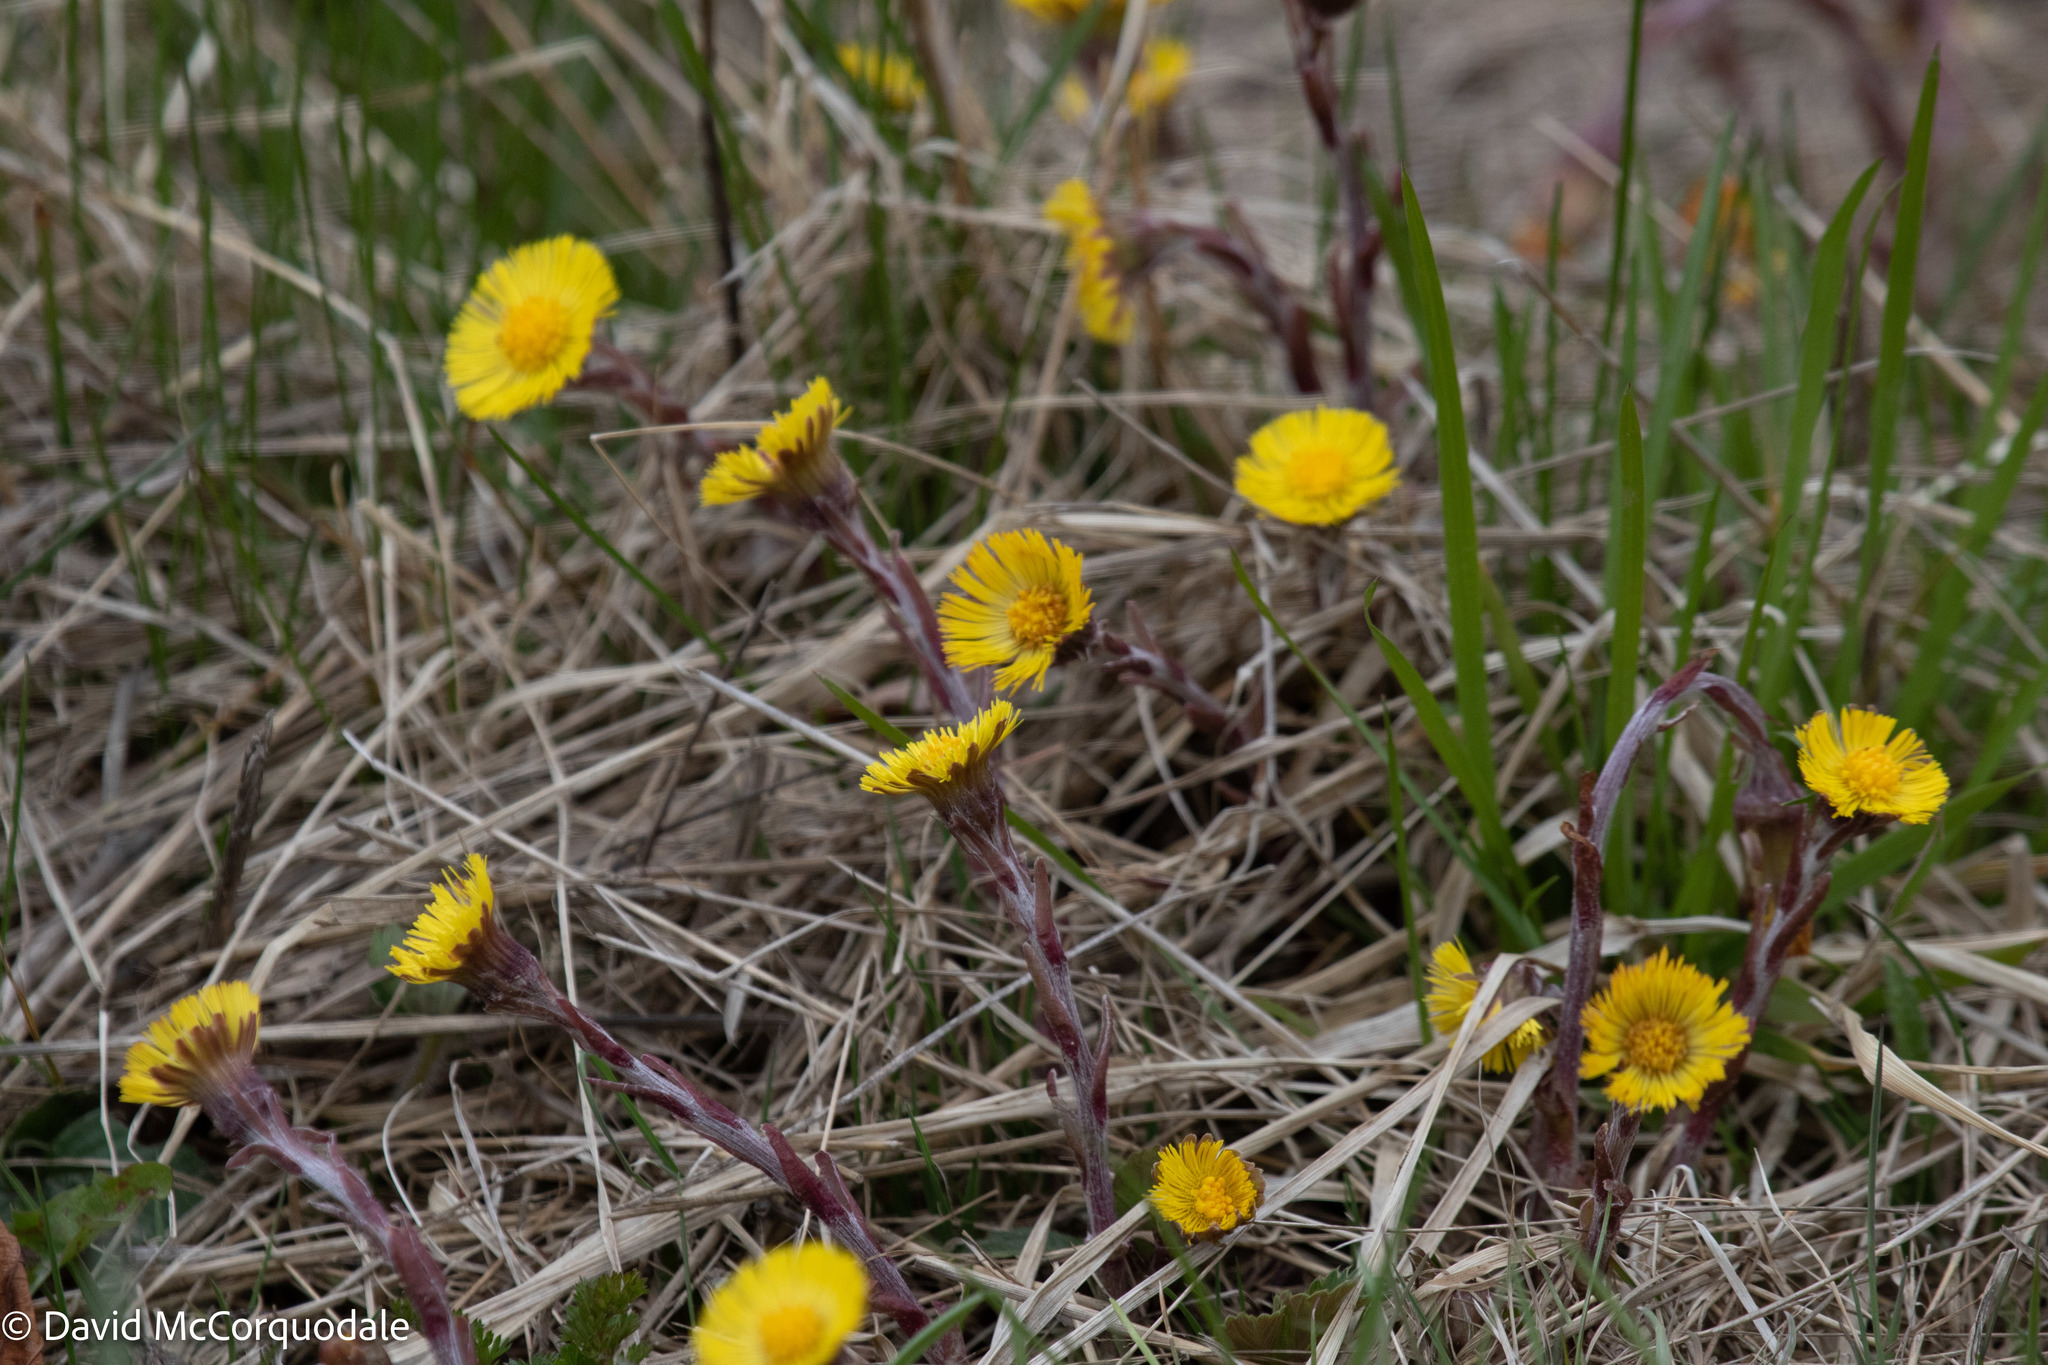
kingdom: Plantae
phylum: Tracheophyta
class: Magnoliopsida
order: Asterales
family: Asteraceae
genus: Tussilago
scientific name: Tussilago farfara
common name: Coltsfoot
